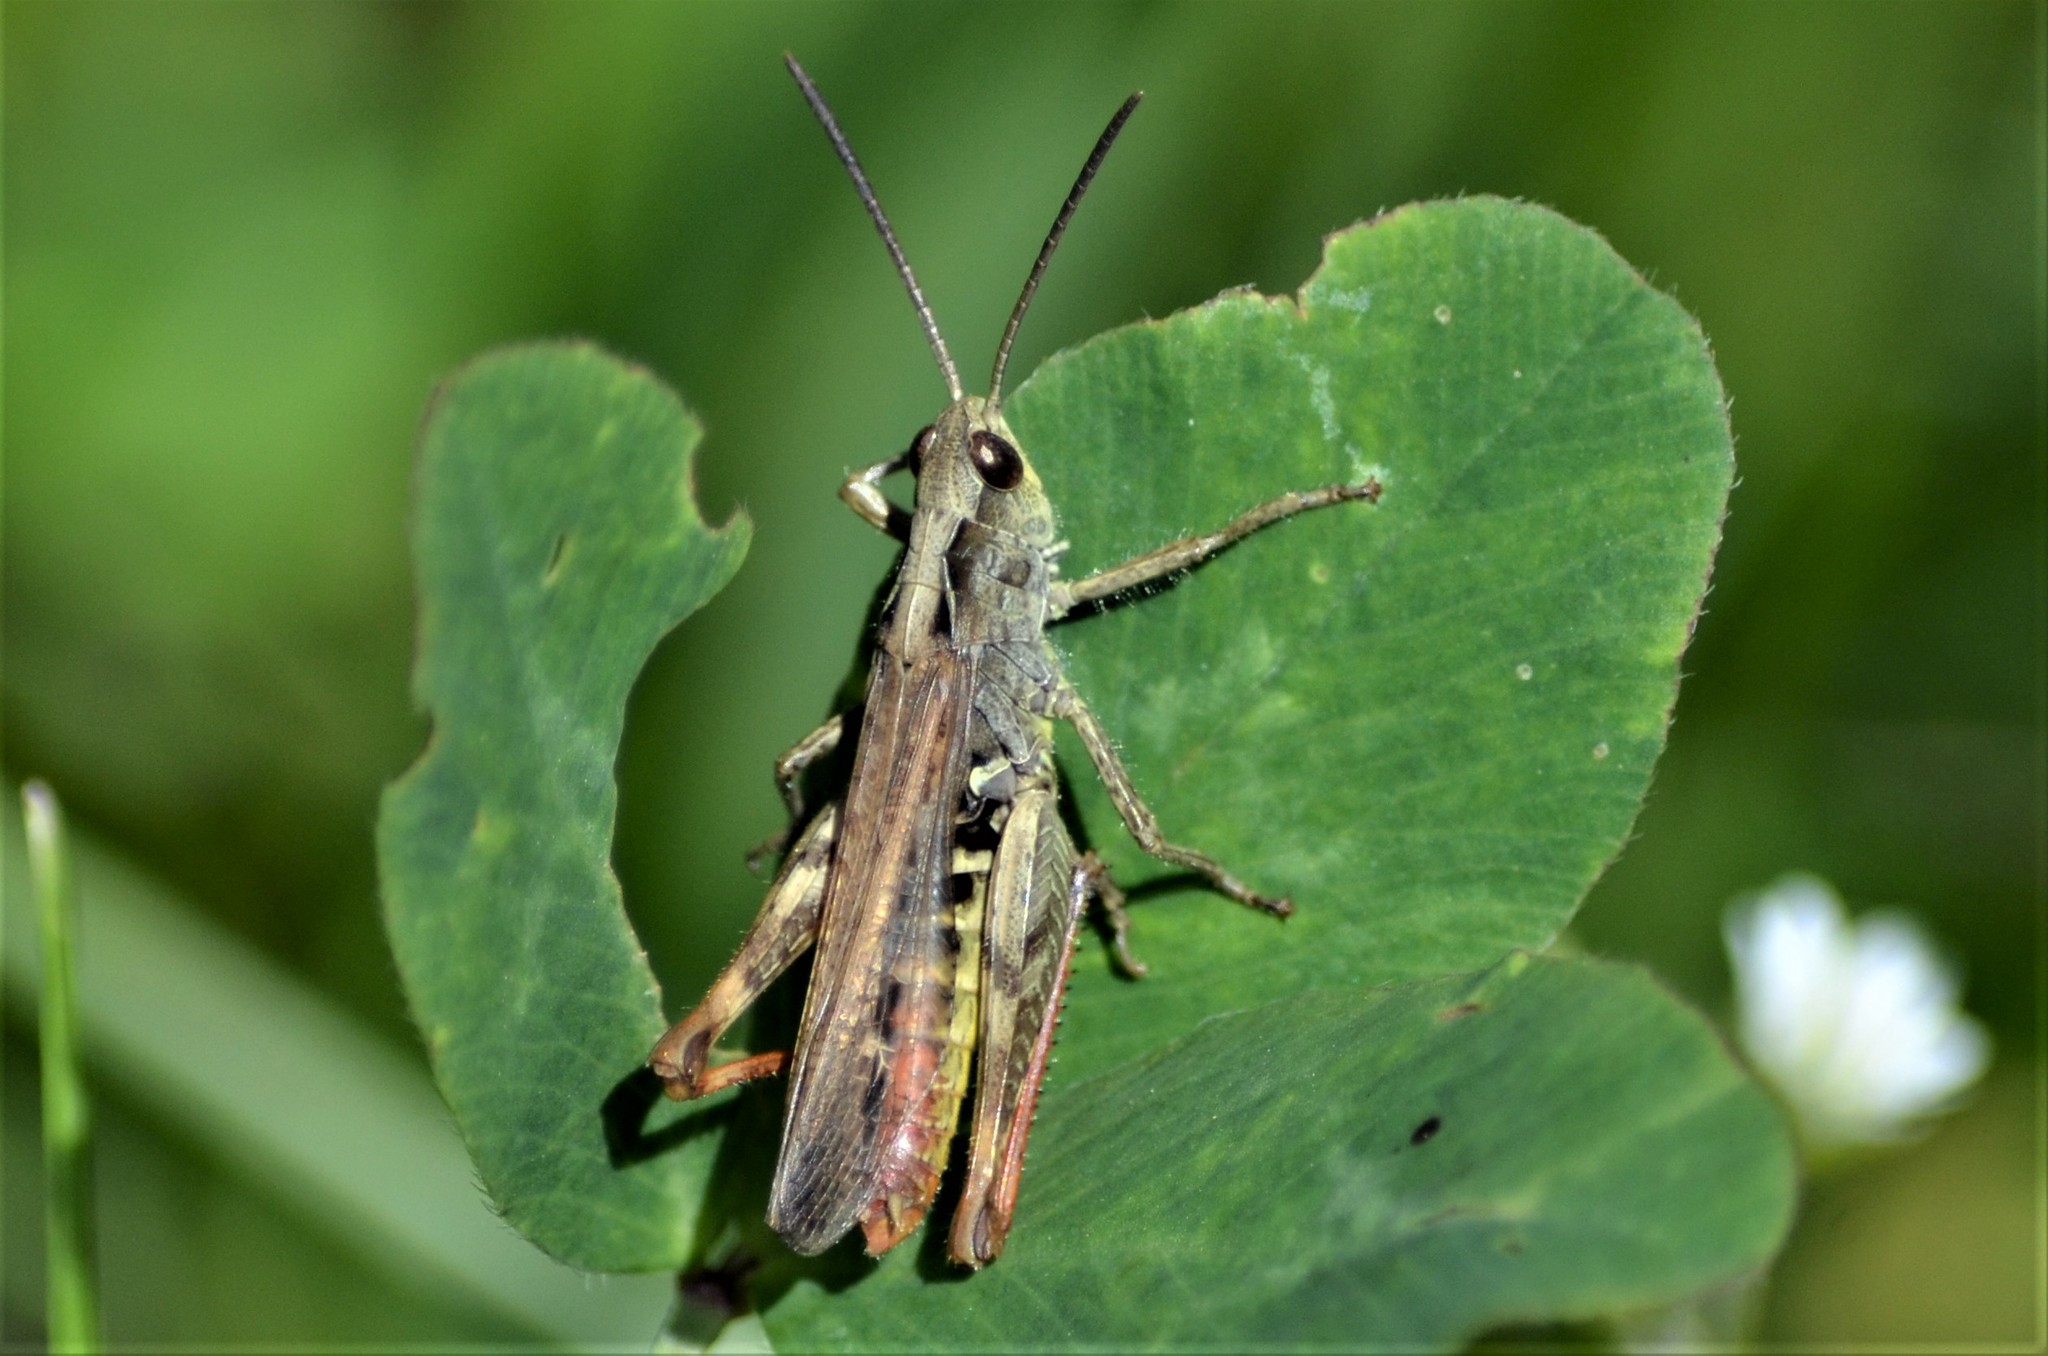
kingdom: Animalia
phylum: Arthropoda
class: Insecta
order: Orthoptera
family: Acrididae
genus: Chorthippus
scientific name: Chorthippus biguttulus
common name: Bow-winged grasshopper
